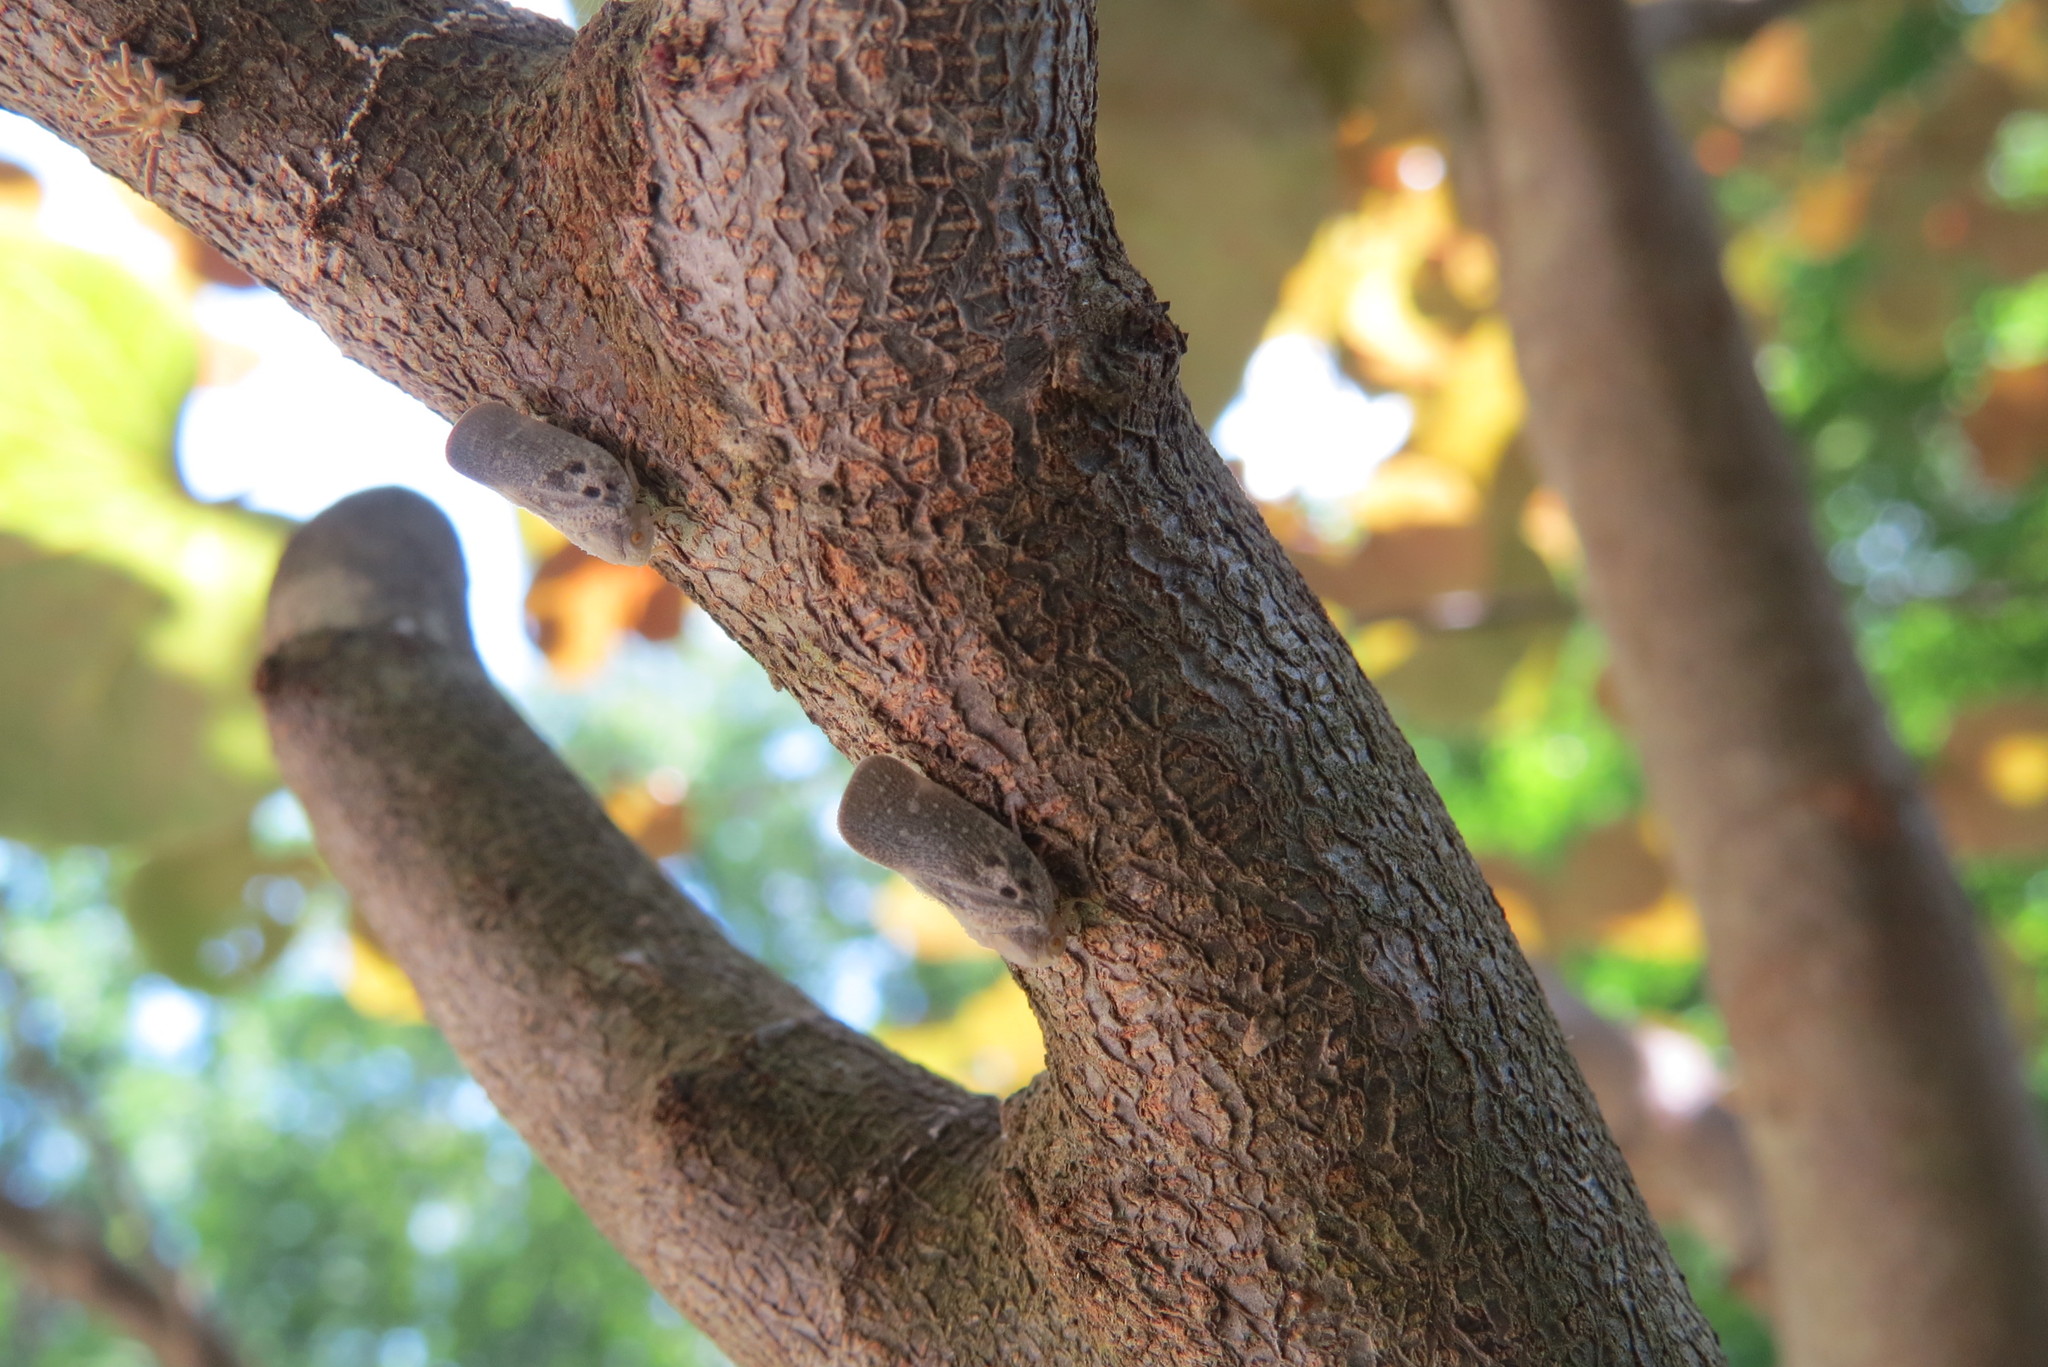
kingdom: Animalia
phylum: Arthropoda
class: Insecta
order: Hemiptera
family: Flatidae
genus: Metcalfa
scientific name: Metcalfa pruinosa
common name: Citrus flatid planthopper
